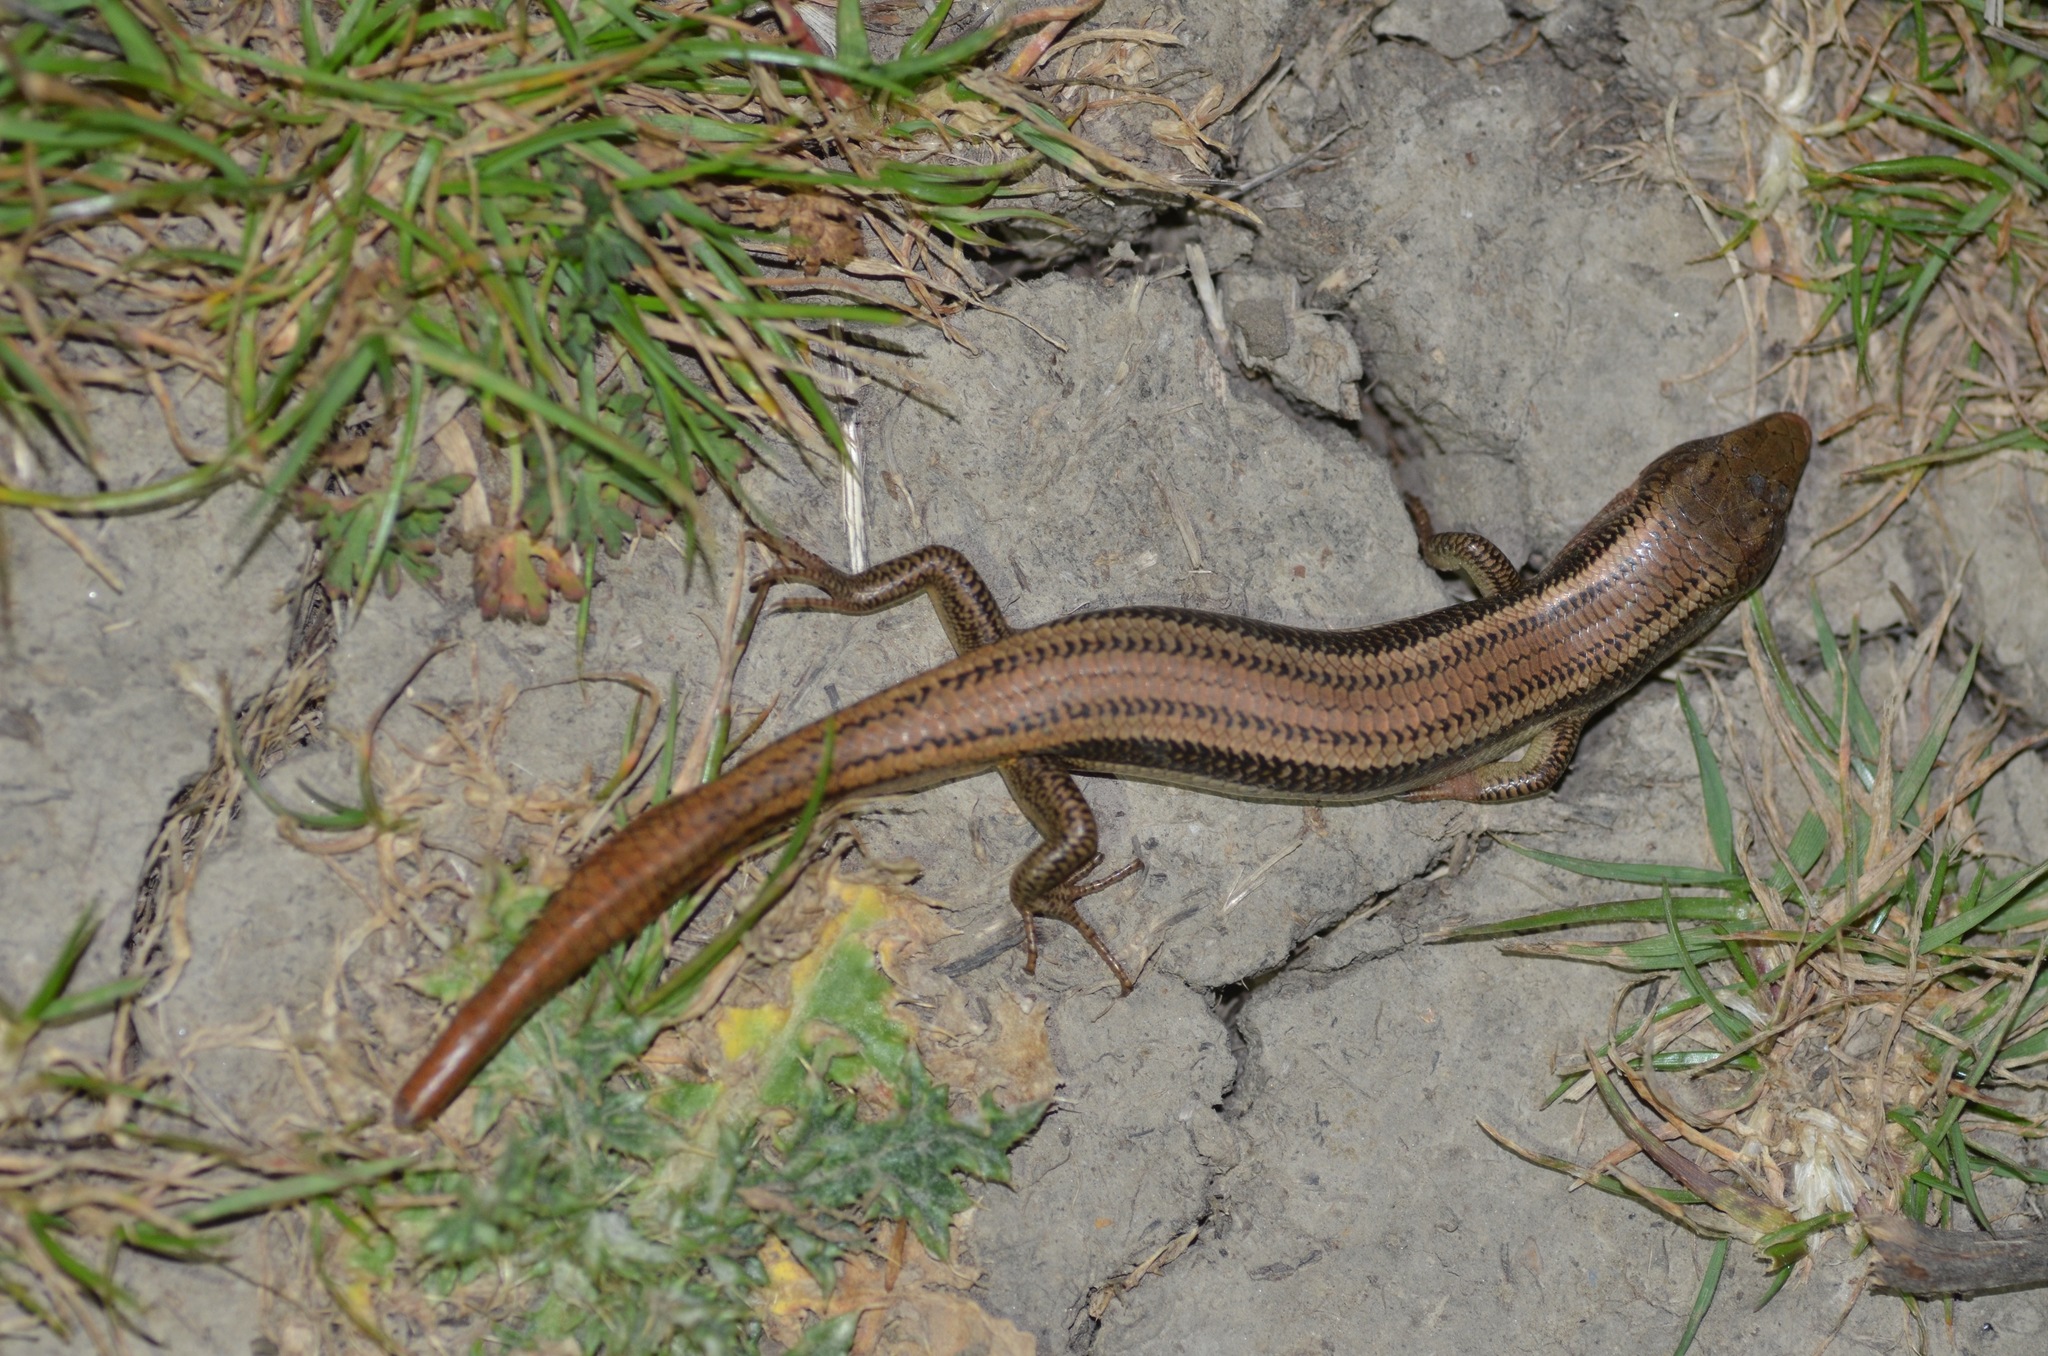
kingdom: Animalia
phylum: Chordata
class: Squamata
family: Scincidae
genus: Plestiodon
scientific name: Plestiodon skiltonianus
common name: Coronado island skink [interparietalis]
